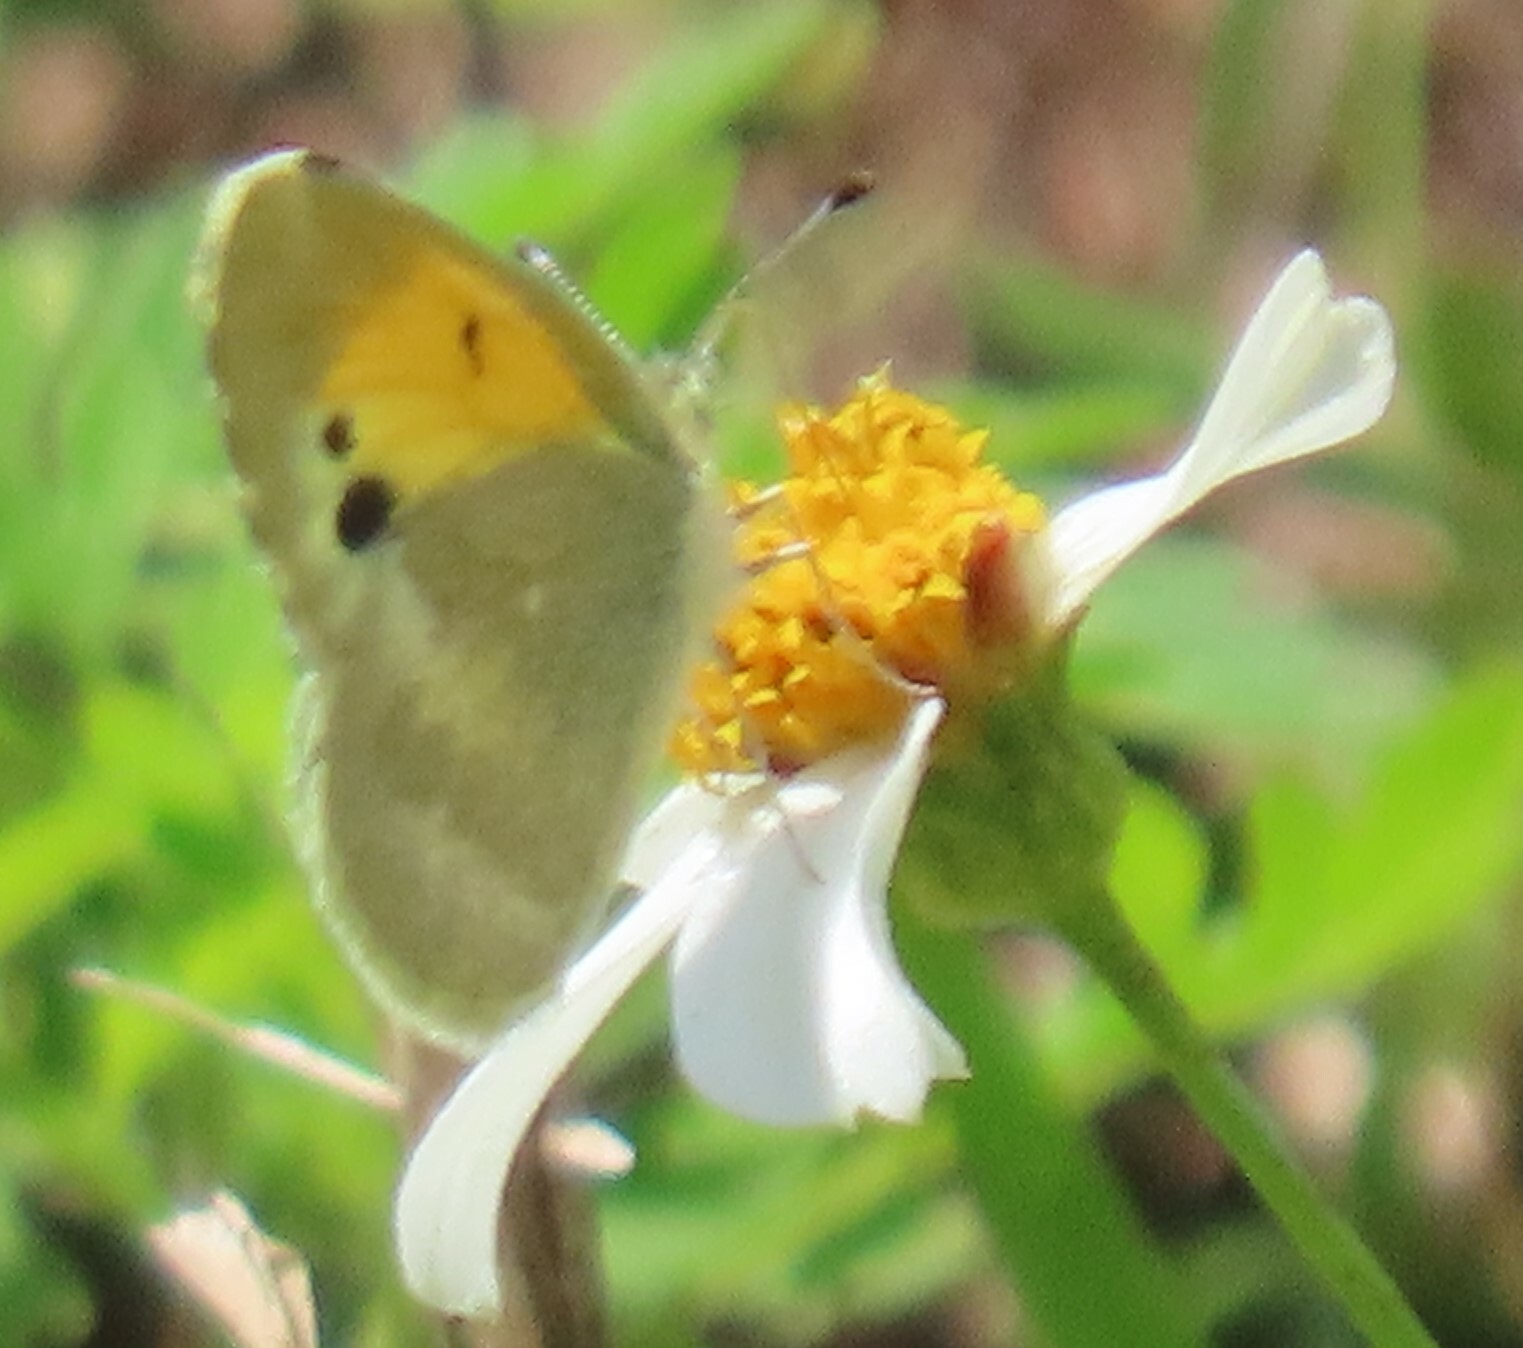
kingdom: Animalia
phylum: Arthropoda
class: Insecta
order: Lepidoptera
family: Pieridae
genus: Nathalis
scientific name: Nathalis iole
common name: Dainty sulphur
